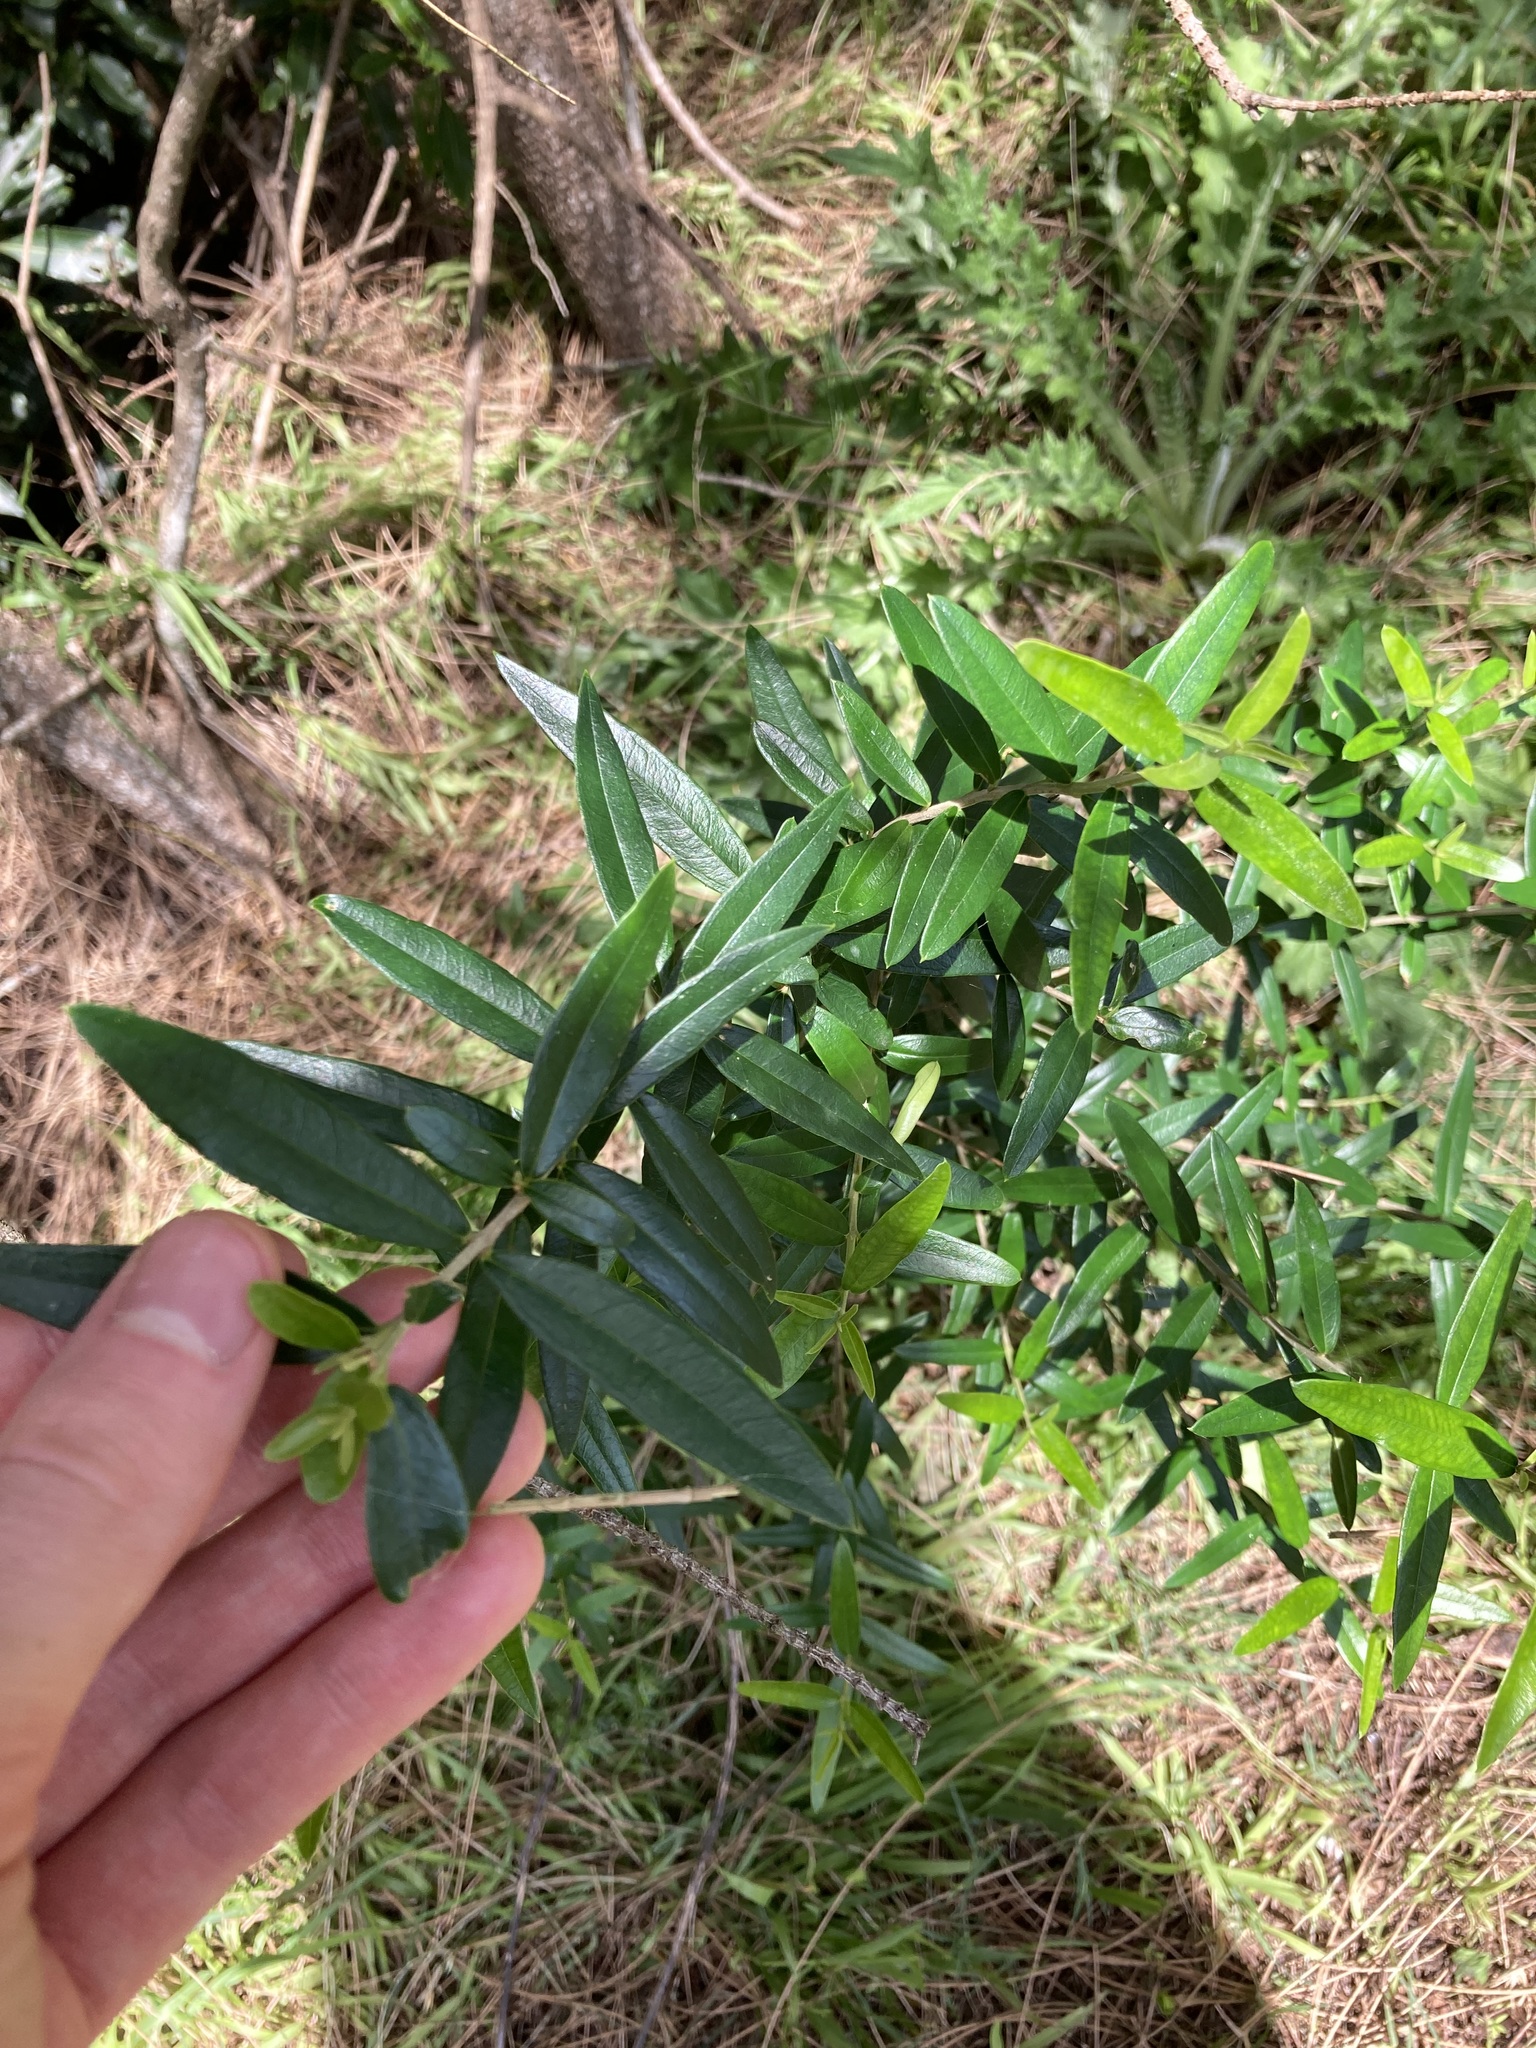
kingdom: Plantae
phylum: Tracheophyta
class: Magnoliopsida
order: Lamiales
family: Oleaceae
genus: Olea
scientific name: Olea europaea
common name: Olive
